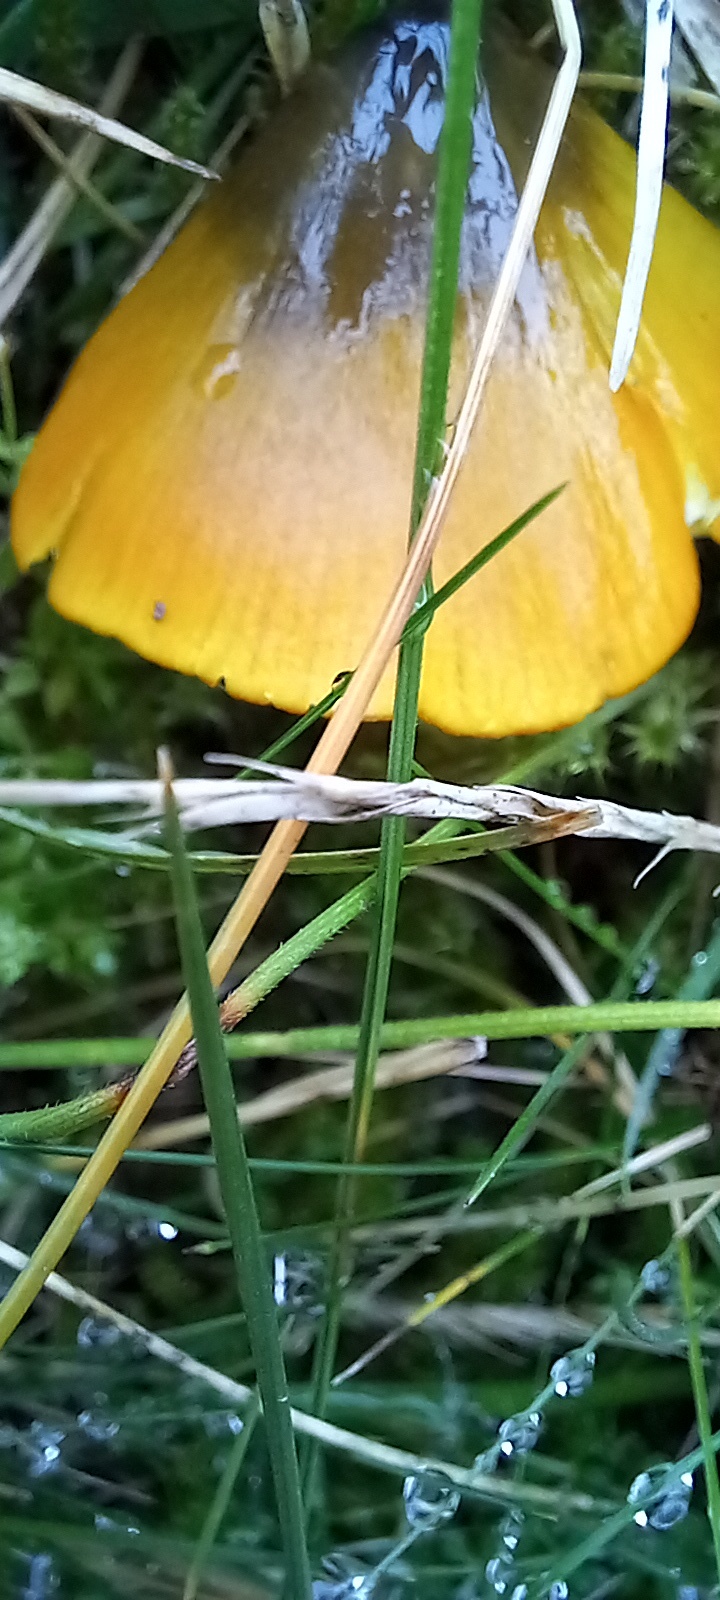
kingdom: Fungi
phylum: Basidiomycota
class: Agaricomycetes
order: Agaricales
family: Hygrophoraceae
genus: Hygrocybe
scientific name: Hygrocybe conica
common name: Blackening wax-cap
